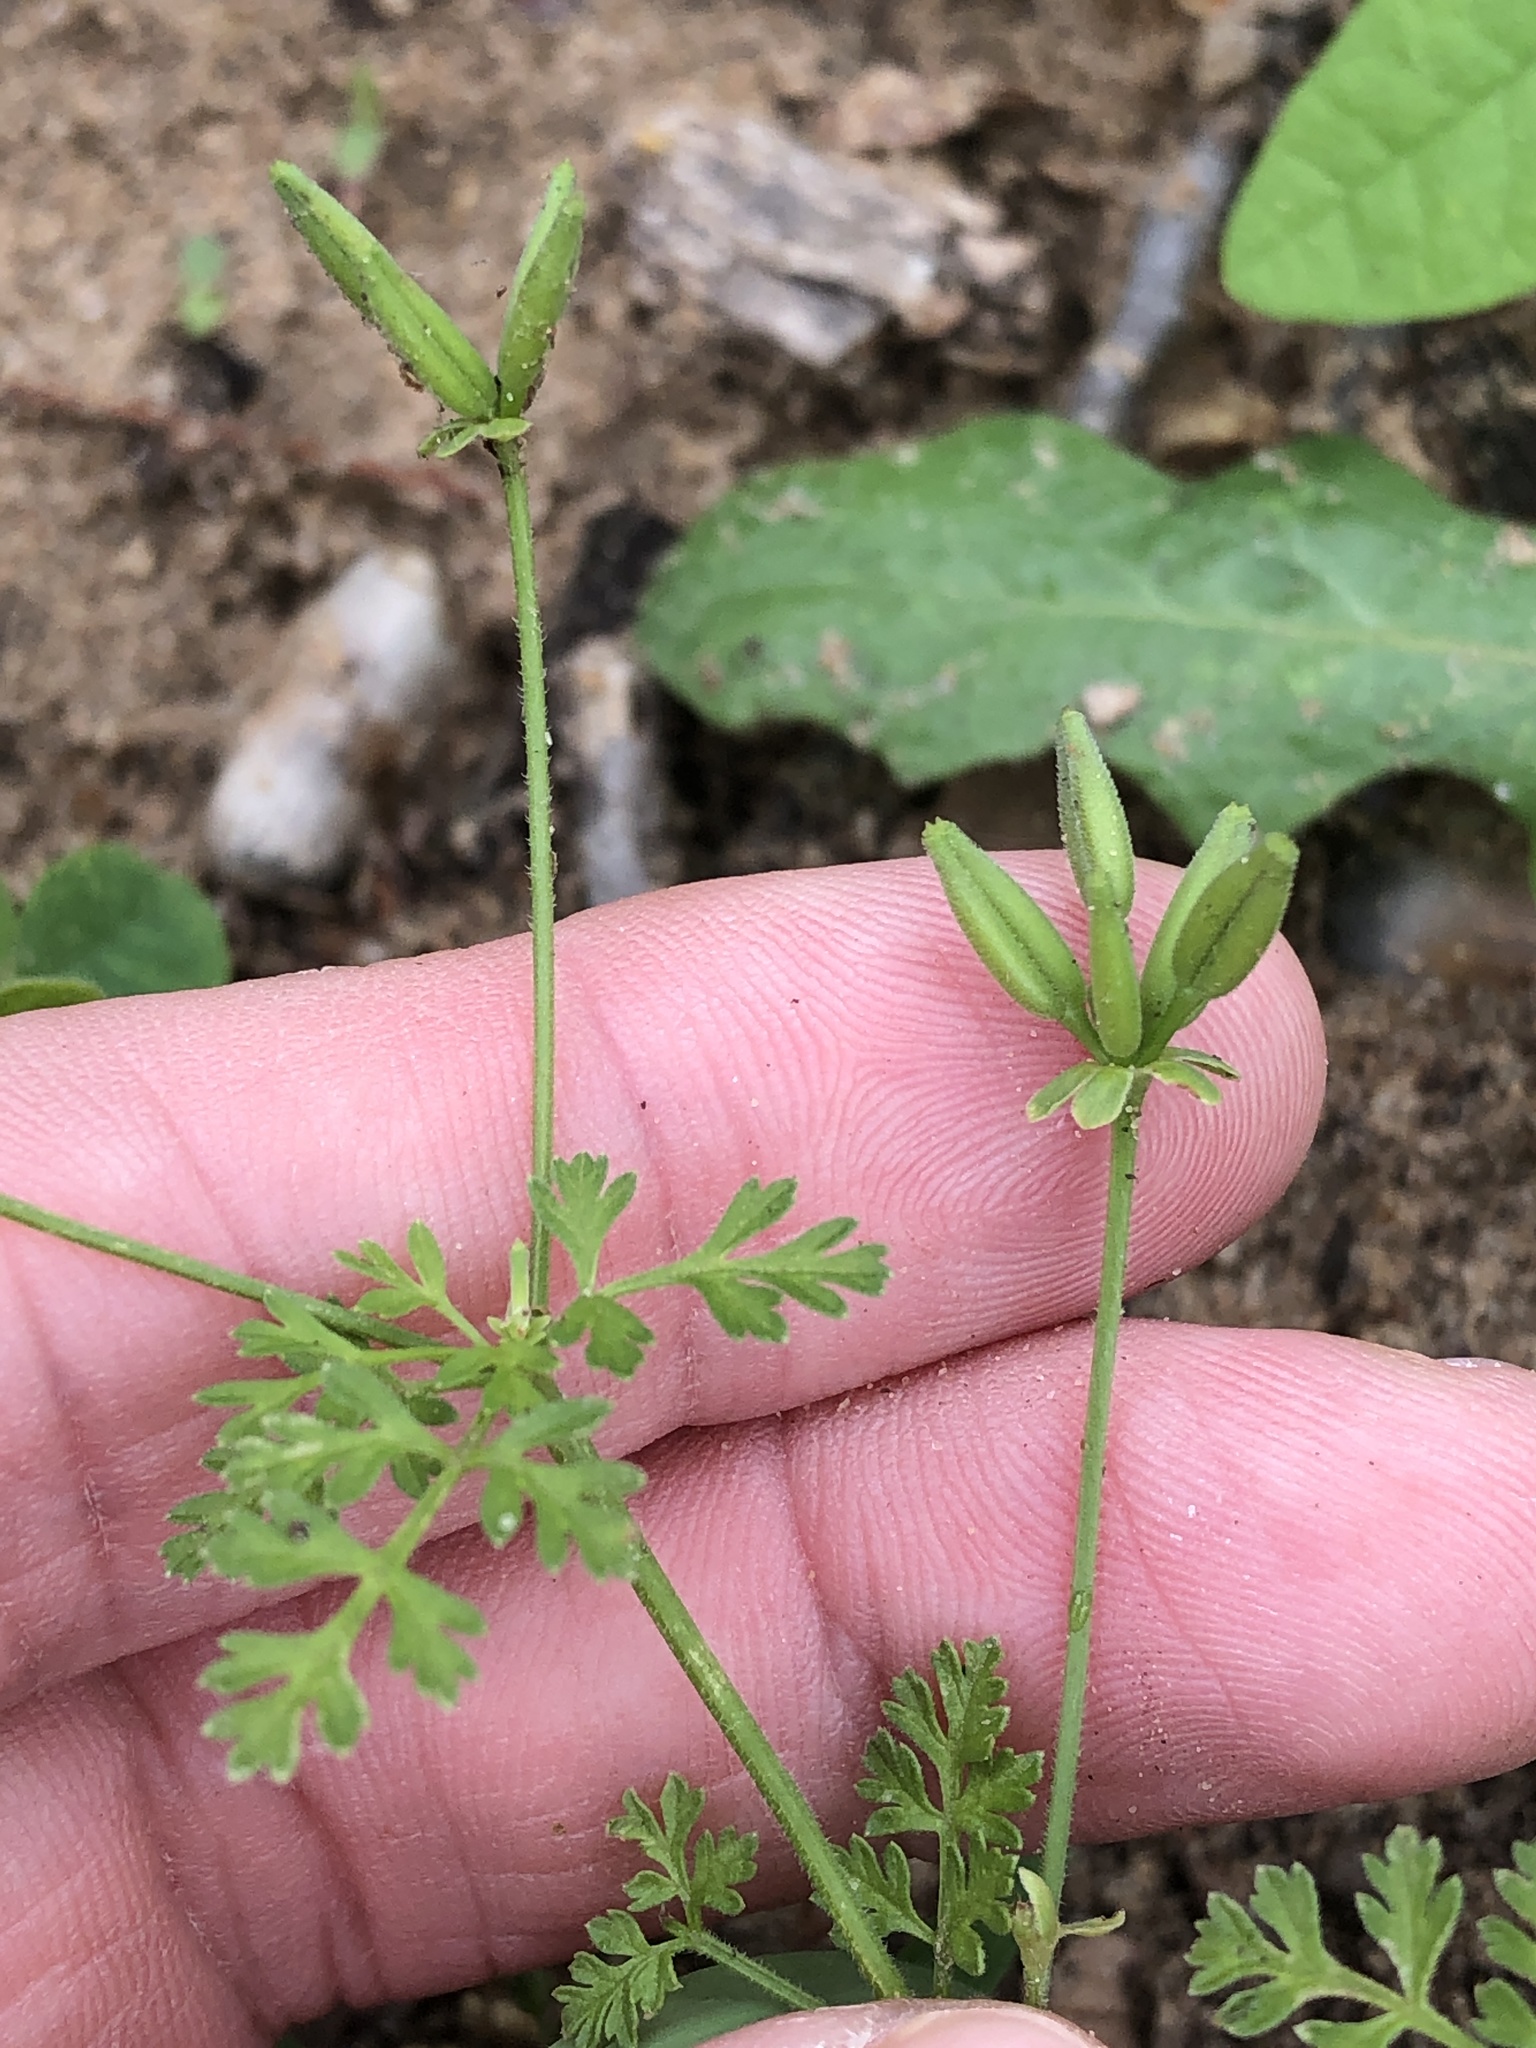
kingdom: Plantae
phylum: Tracheophyta
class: Magnoliopsida
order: Apiales
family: Apiaceae
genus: Chaerophyllum
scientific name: Chaerophyllum tainturieri
